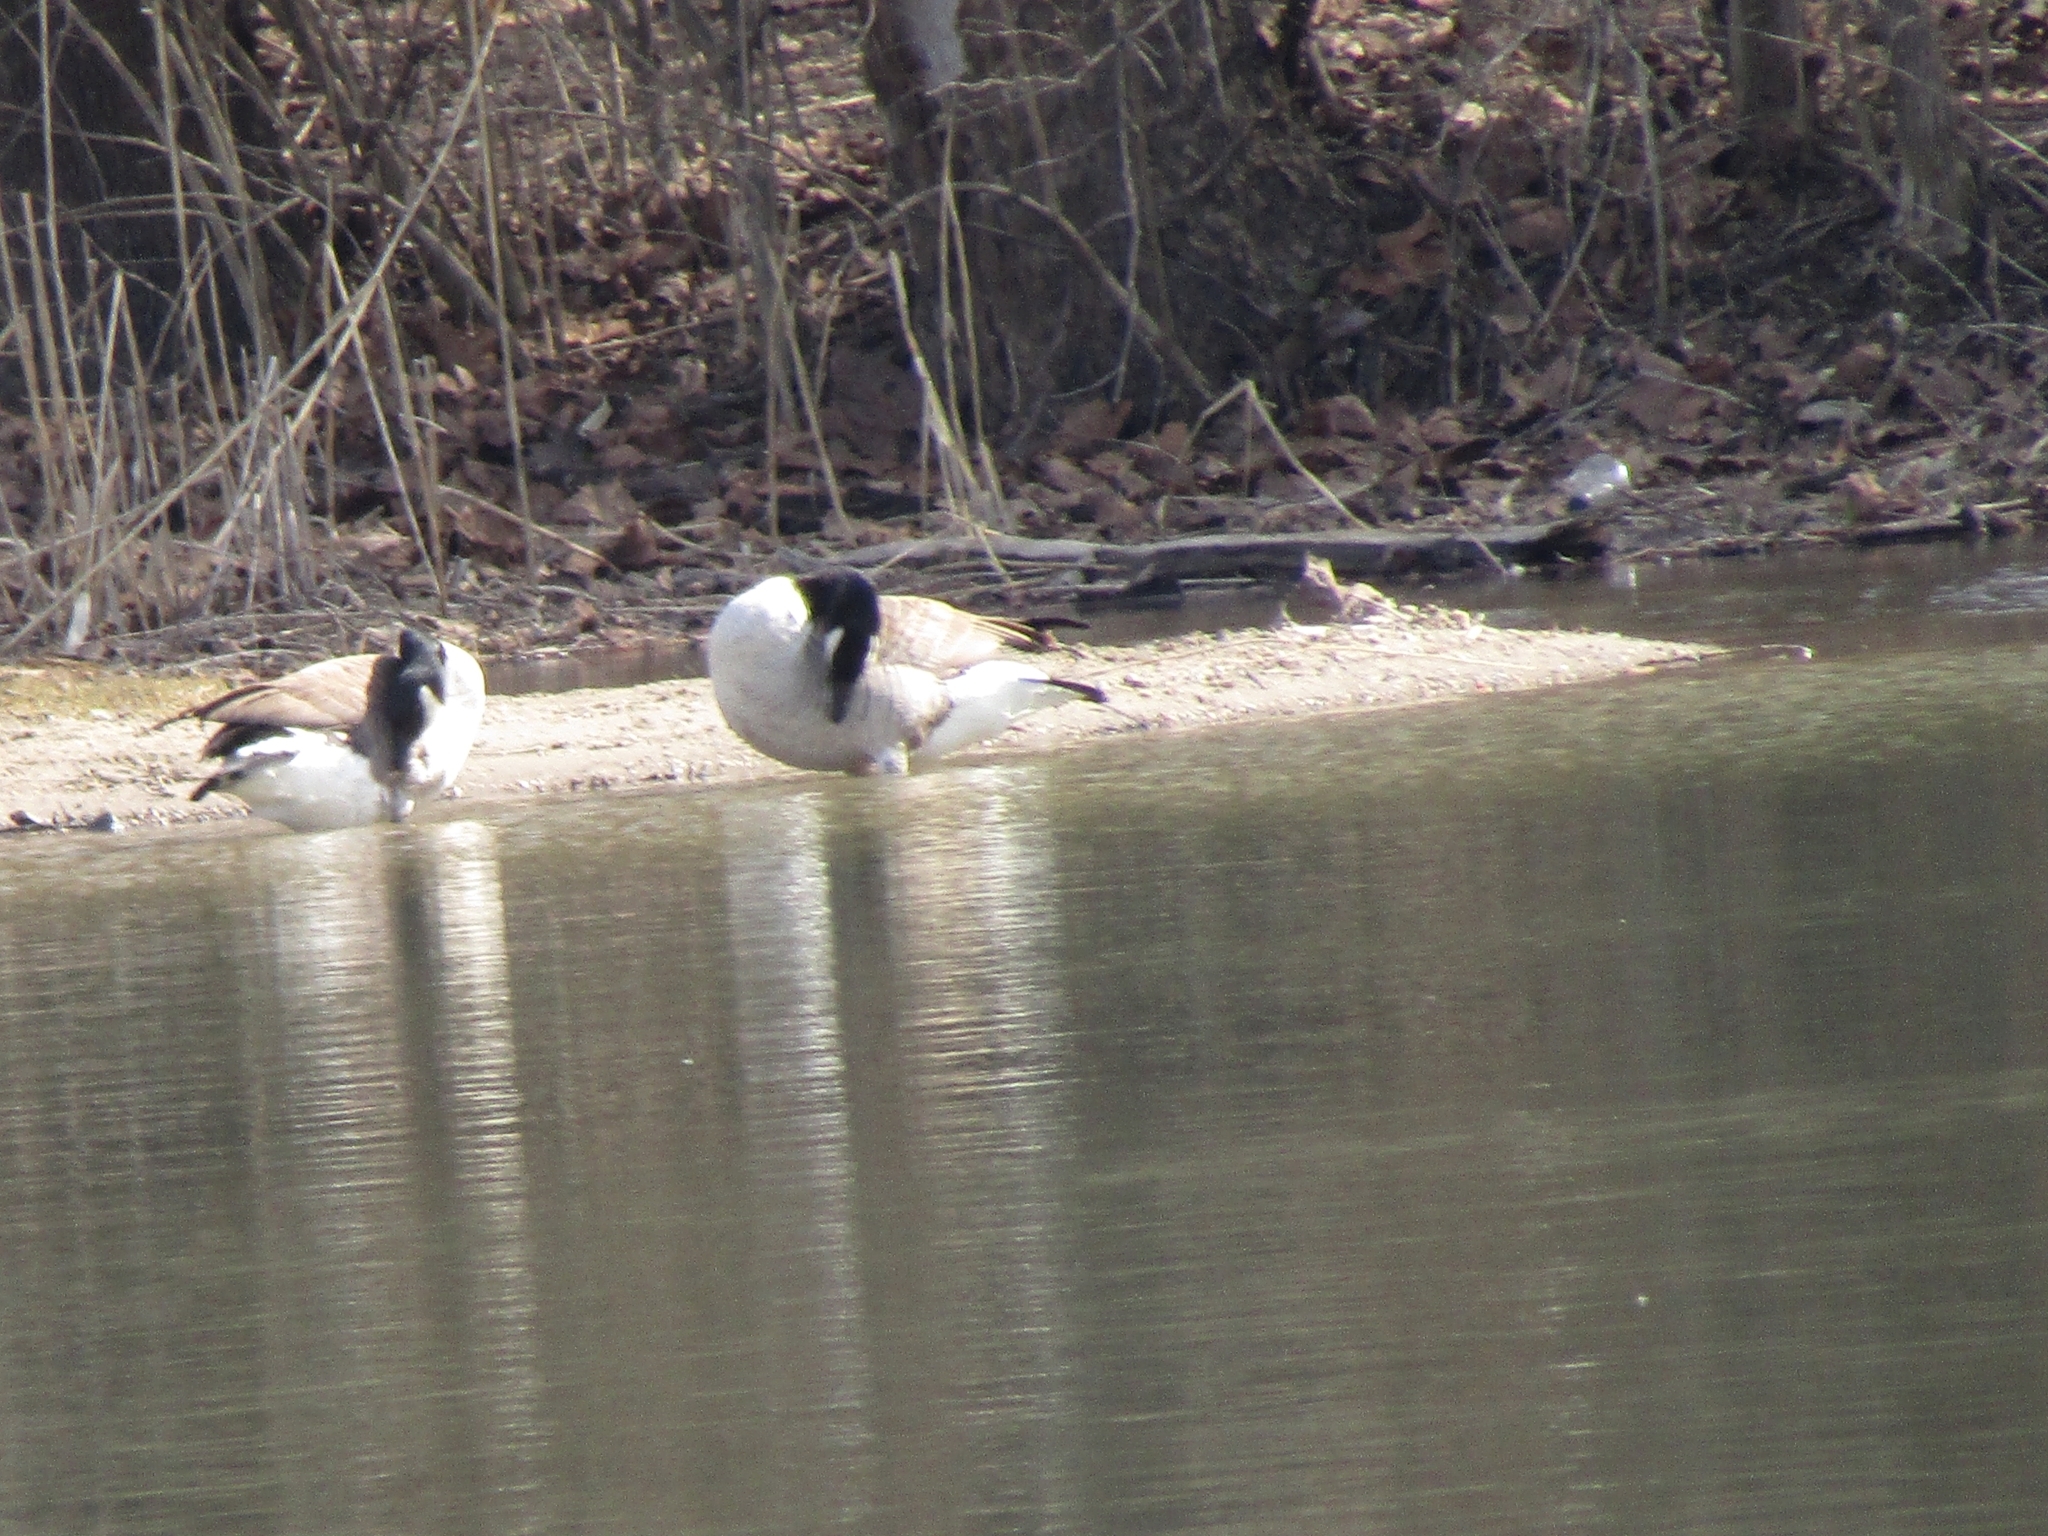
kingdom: Animalia
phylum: Chordata
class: Aves
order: Anseriformes
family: Anatidae
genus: Branta
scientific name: Branta canadensis
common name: Canada goose
